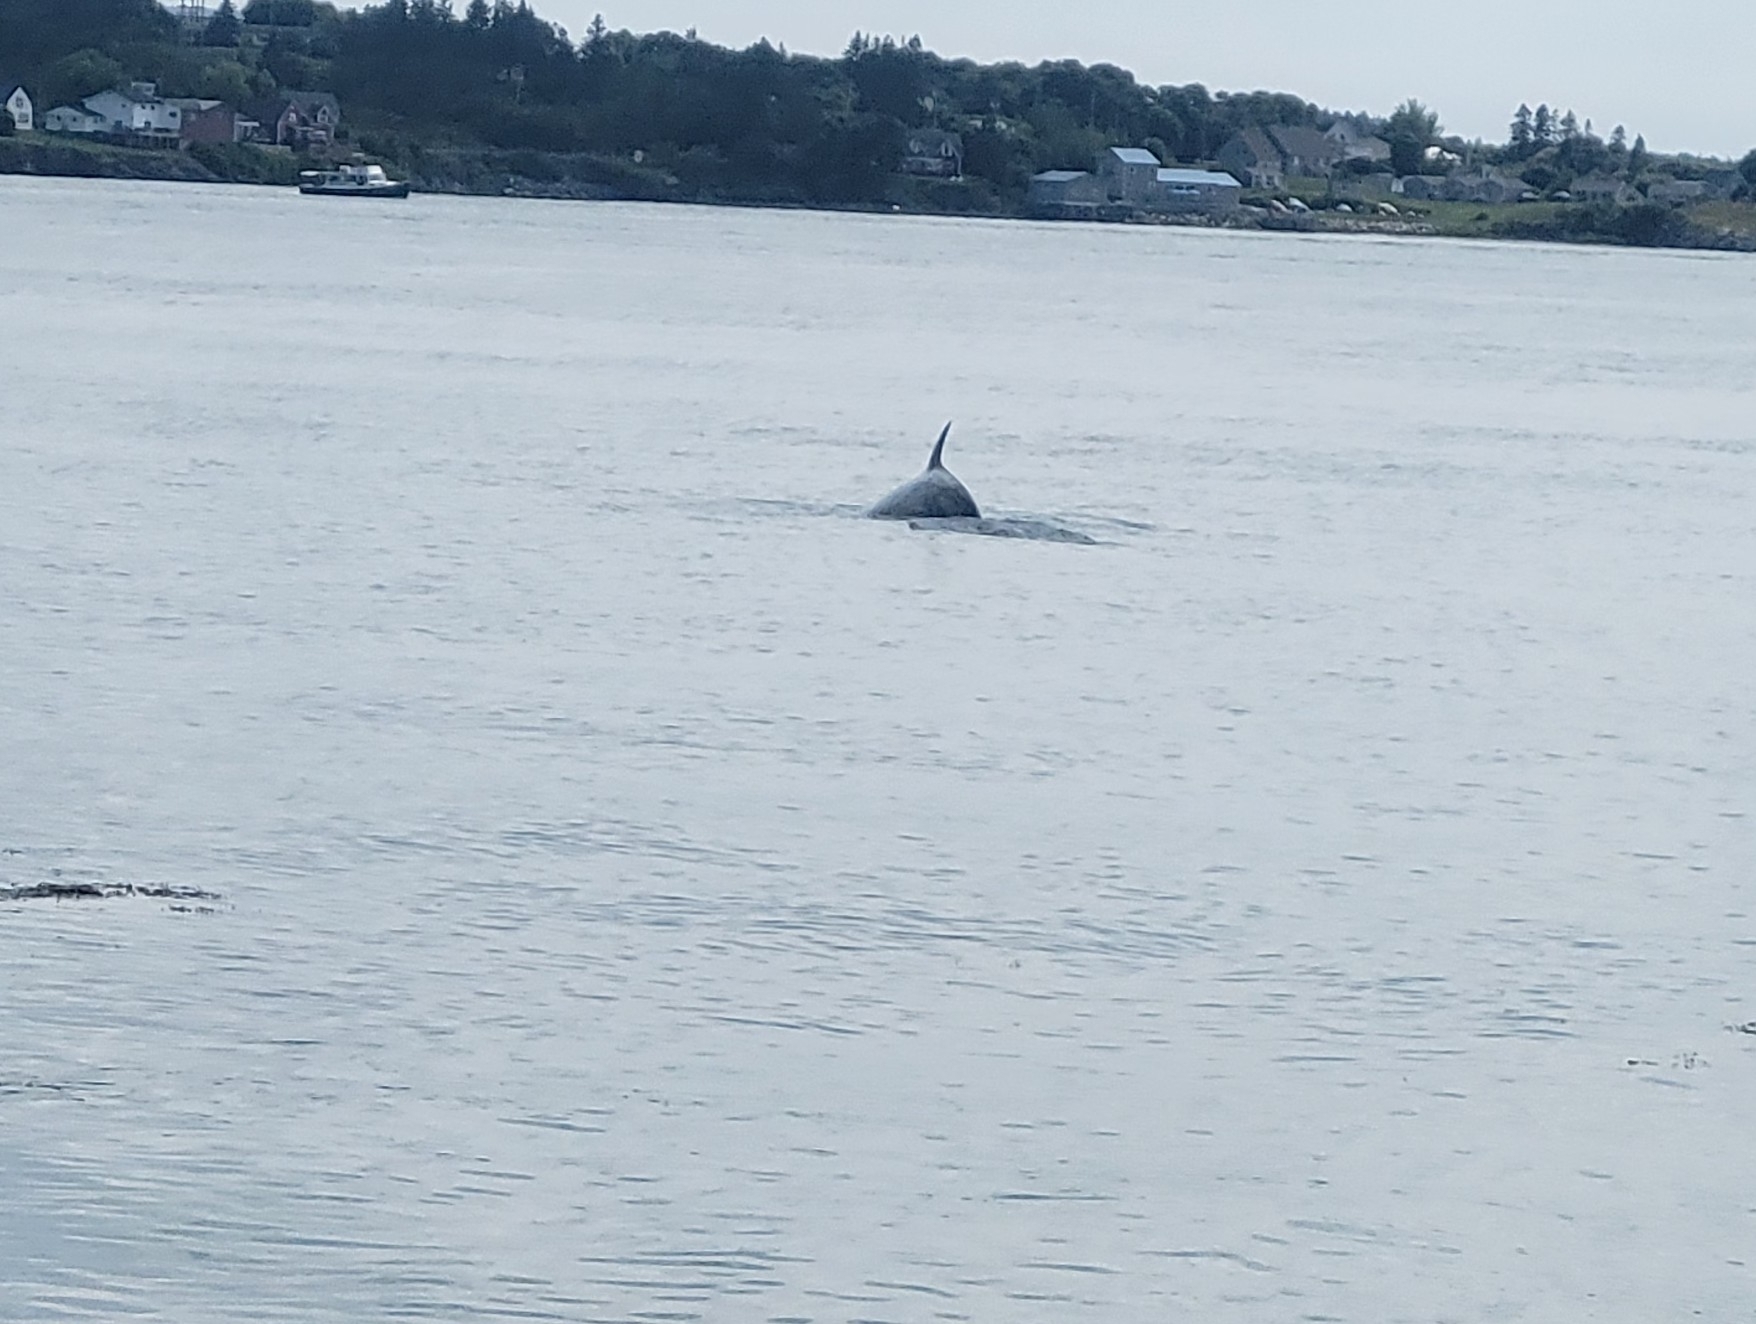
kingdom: Animalia
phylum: Chordata
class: Mammalia
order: Cetacea
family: Balaenopteridae
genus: Balaenoptera
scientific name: Balaenoptera acutorostrata
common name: Common minke whale
